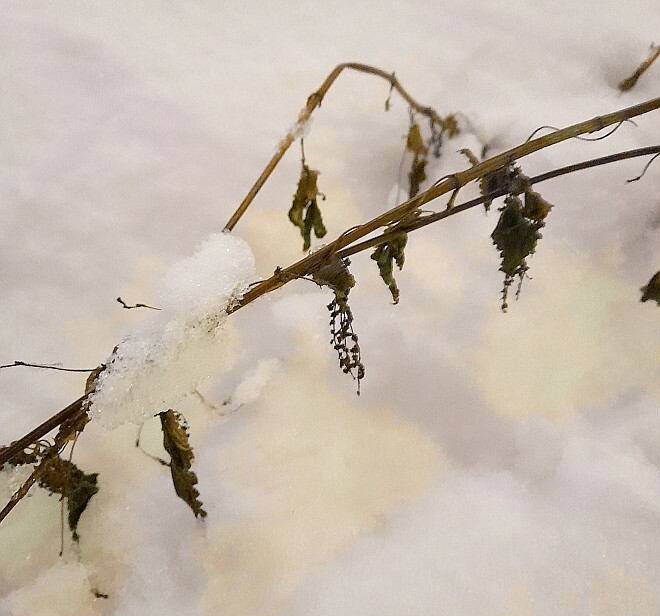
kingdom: Plantae
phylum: Tracheophyta
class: Magnoliopsida
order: Rosales
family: Urticaceae
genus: Urtica
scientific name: Urtica dioica
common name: Common nettle
